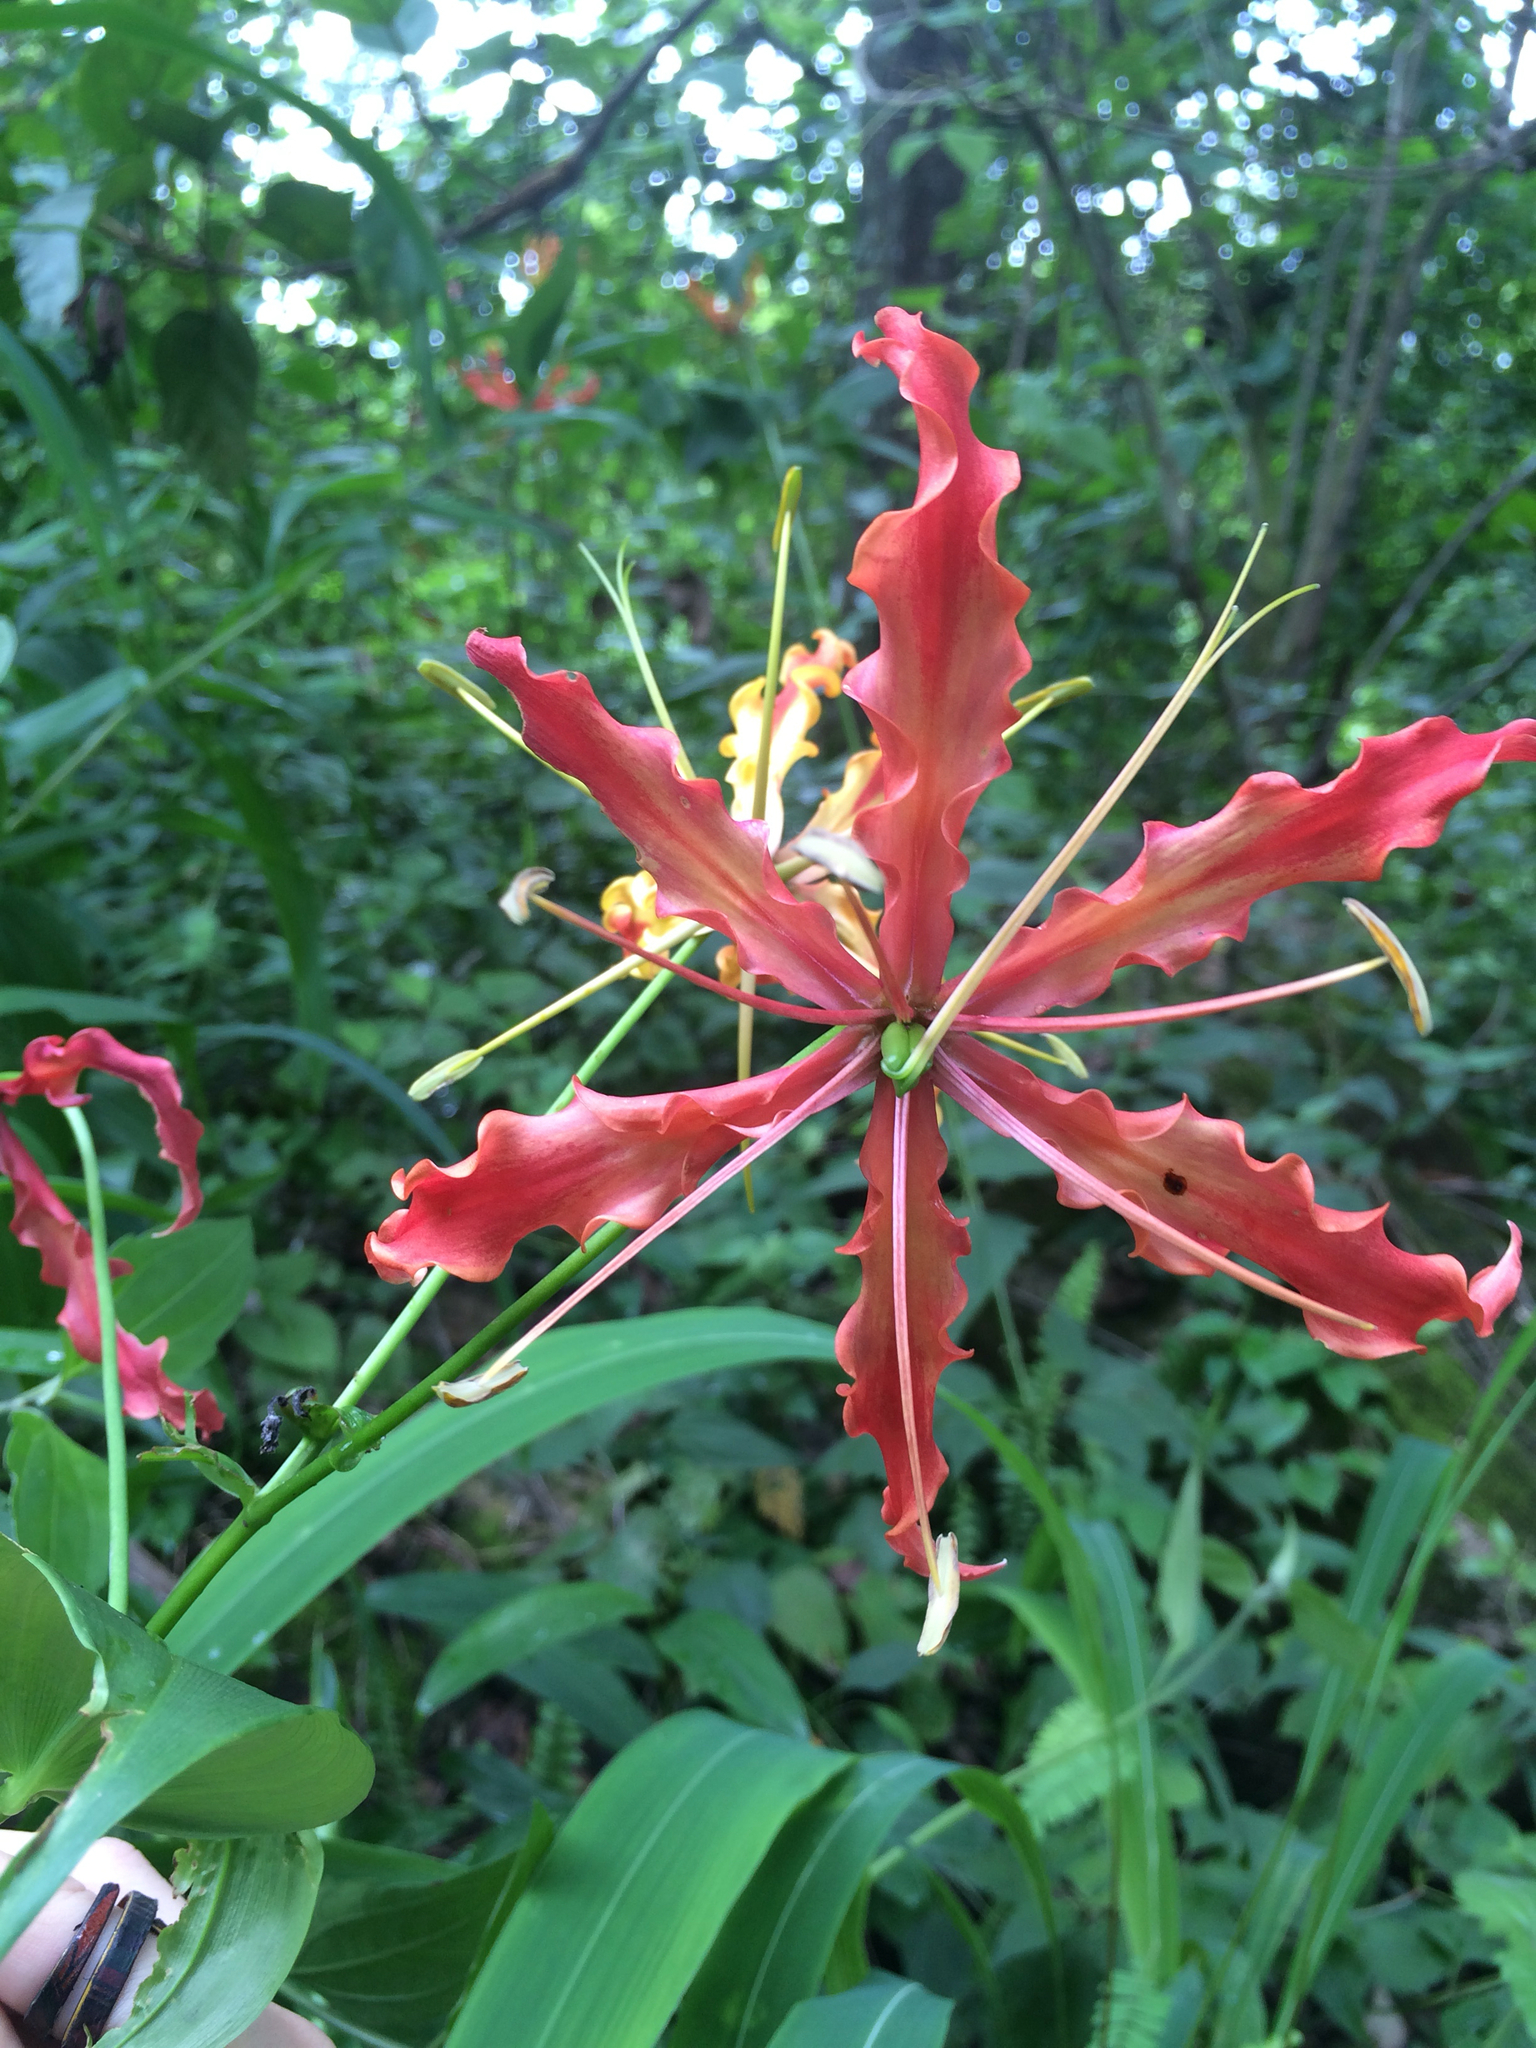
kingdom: Plantae
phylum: Tracheophyta
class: Liliopsida
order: Liliales
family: Colchicaceae
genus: Gloriosa
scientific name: Gloriosa superba
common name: Flame lily
